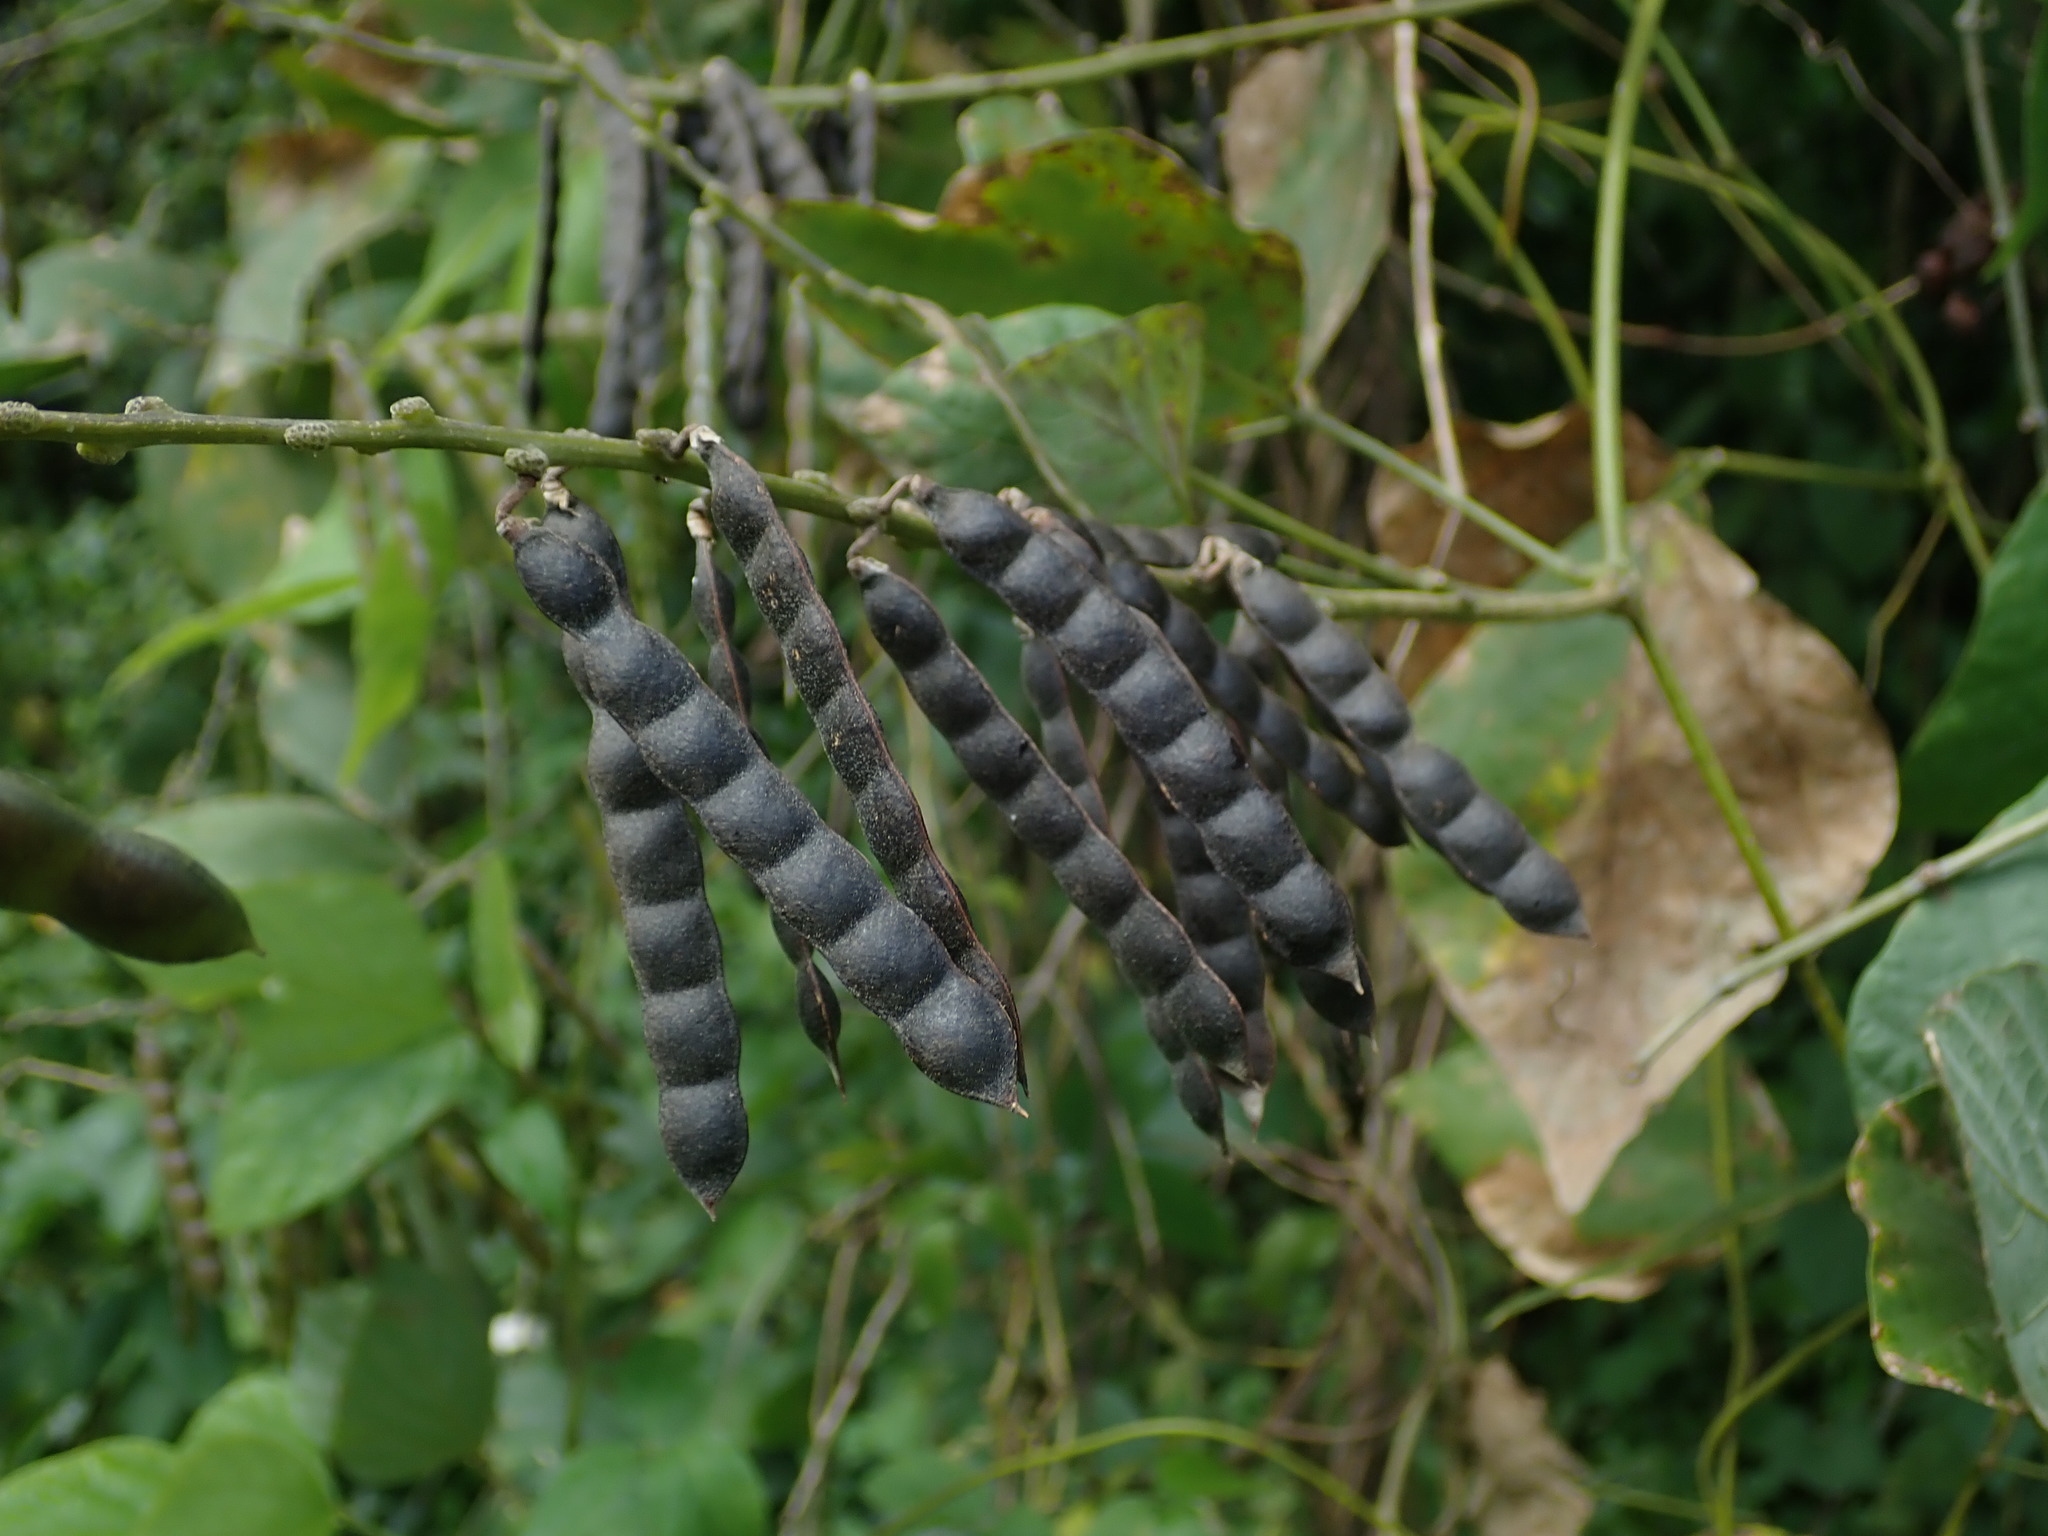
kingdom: Plantae
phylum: Tracheophyta
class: Magnoliopsida
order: Fabales
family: Fabaceae
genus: Calopogonium
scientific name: Calopogonium caeruleum
